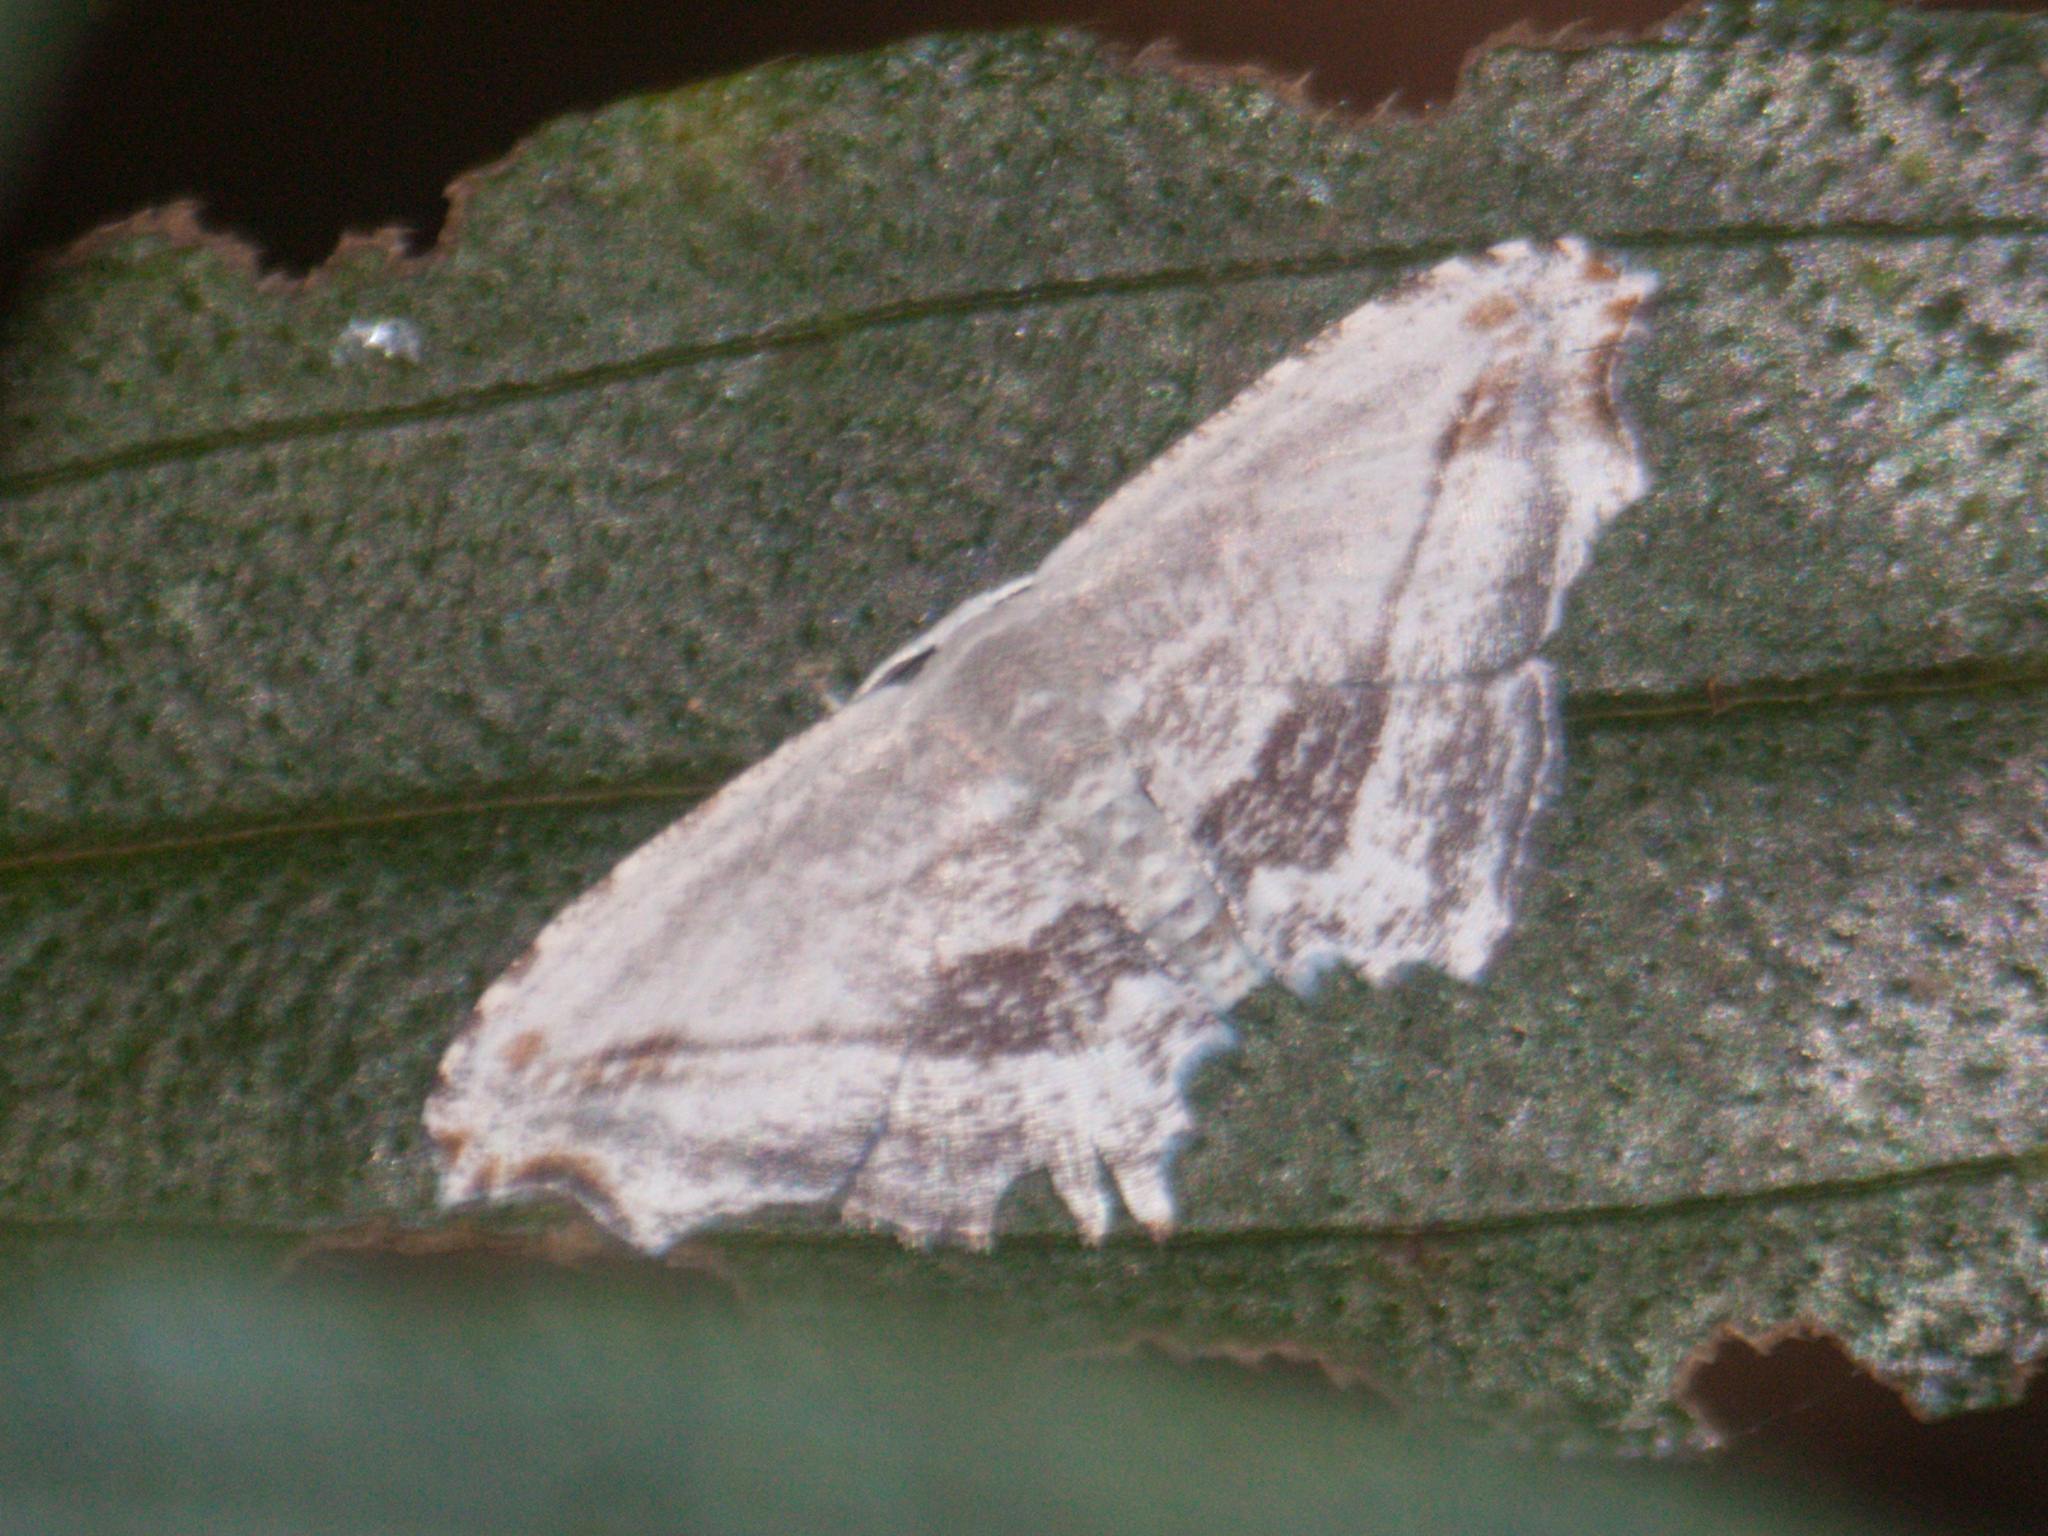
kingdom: Animalia
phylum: Arthropoda
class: Insecta
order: Lepidoptera
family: Uraniidae
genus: Rhombophylla
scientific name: Rhombophylla edentata
